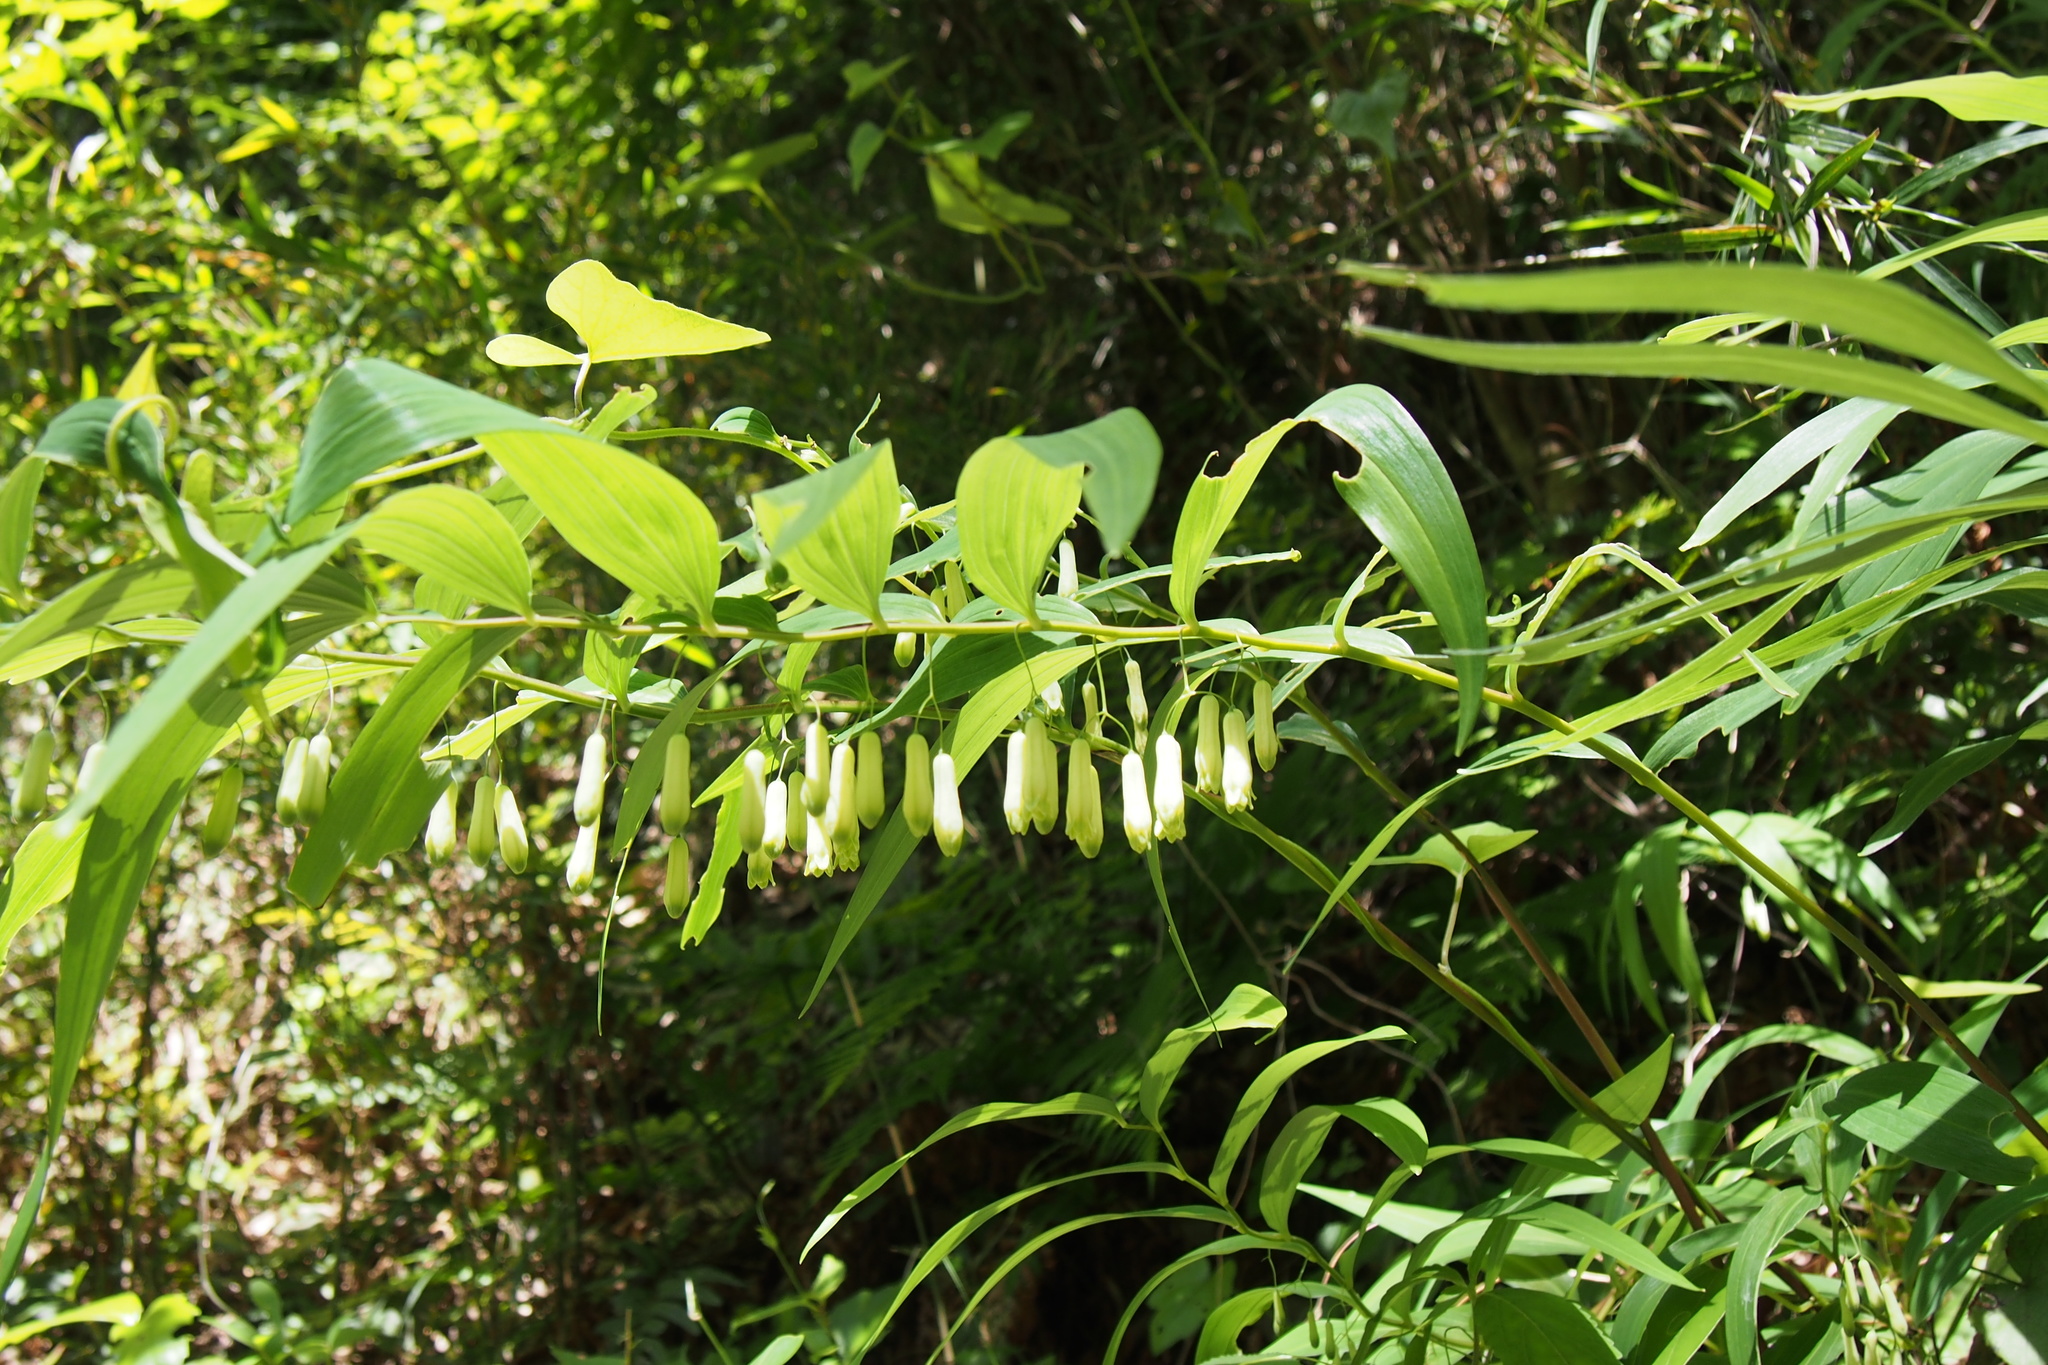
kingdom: Plantae
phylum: Tracheophyta
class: Liliopsida
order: Asparagales
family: Asparagaceae
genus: Polygonatum
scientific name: Polygonatum falcatum
